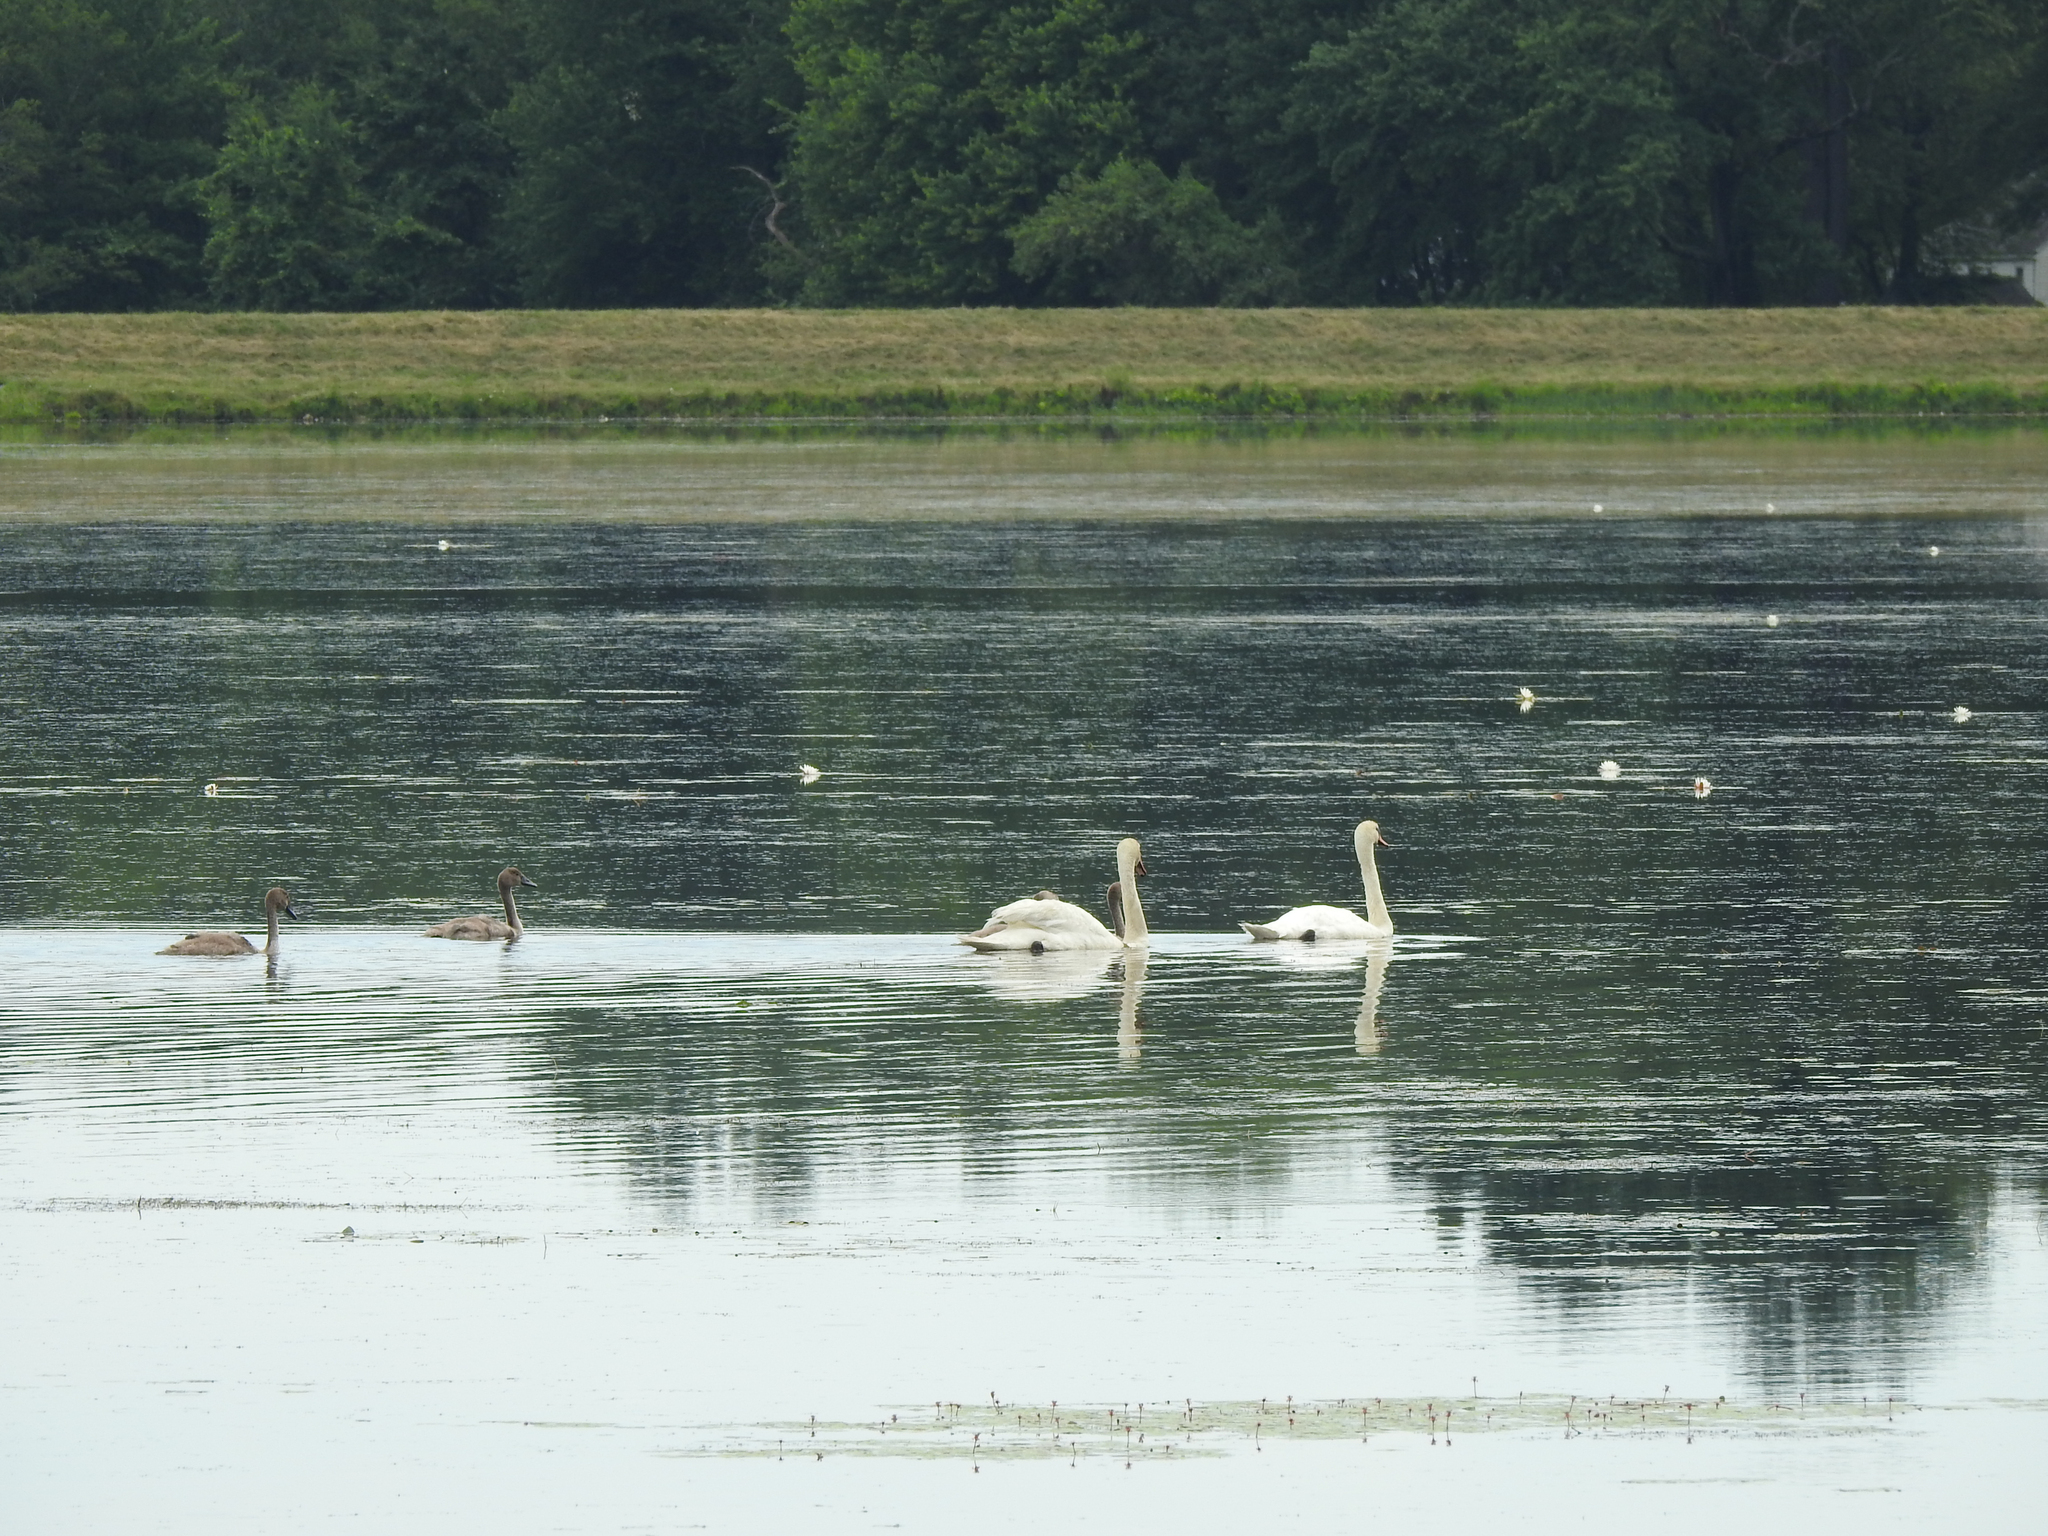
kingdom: Animalia
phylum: Chordata
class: Aves
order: Anseriformes
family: Anatidae
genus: Cygnus
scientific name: Cygnus olor
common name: Mute swan
